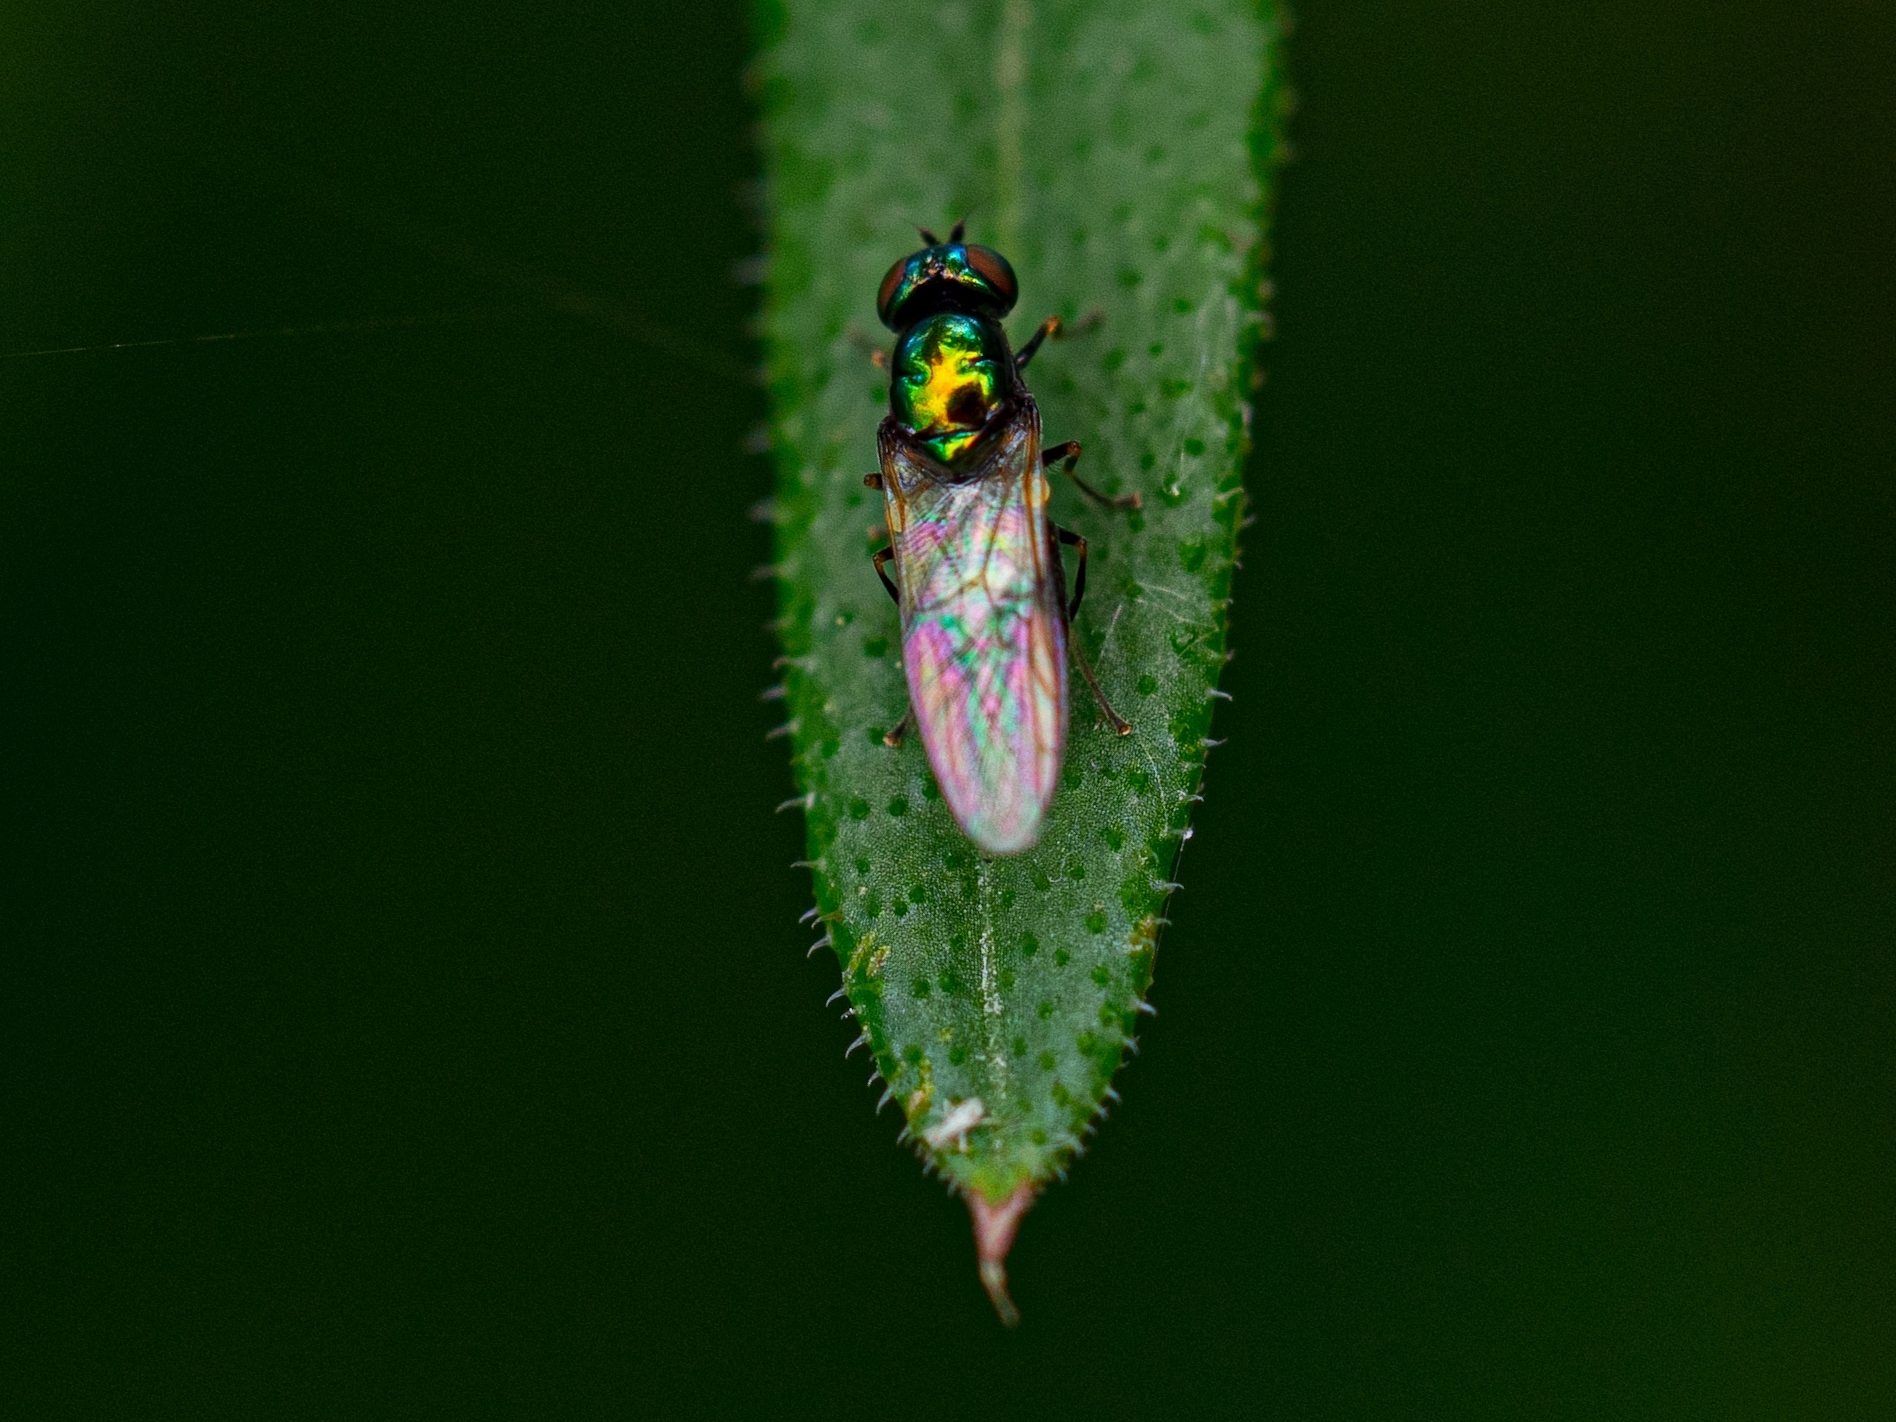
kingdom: Animalia
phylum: Arthropoda
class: Insecta
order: Diptera
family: Stratiomyidae
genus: Microchrysa
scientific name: Microchrysa polita
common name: Black-horned gem
